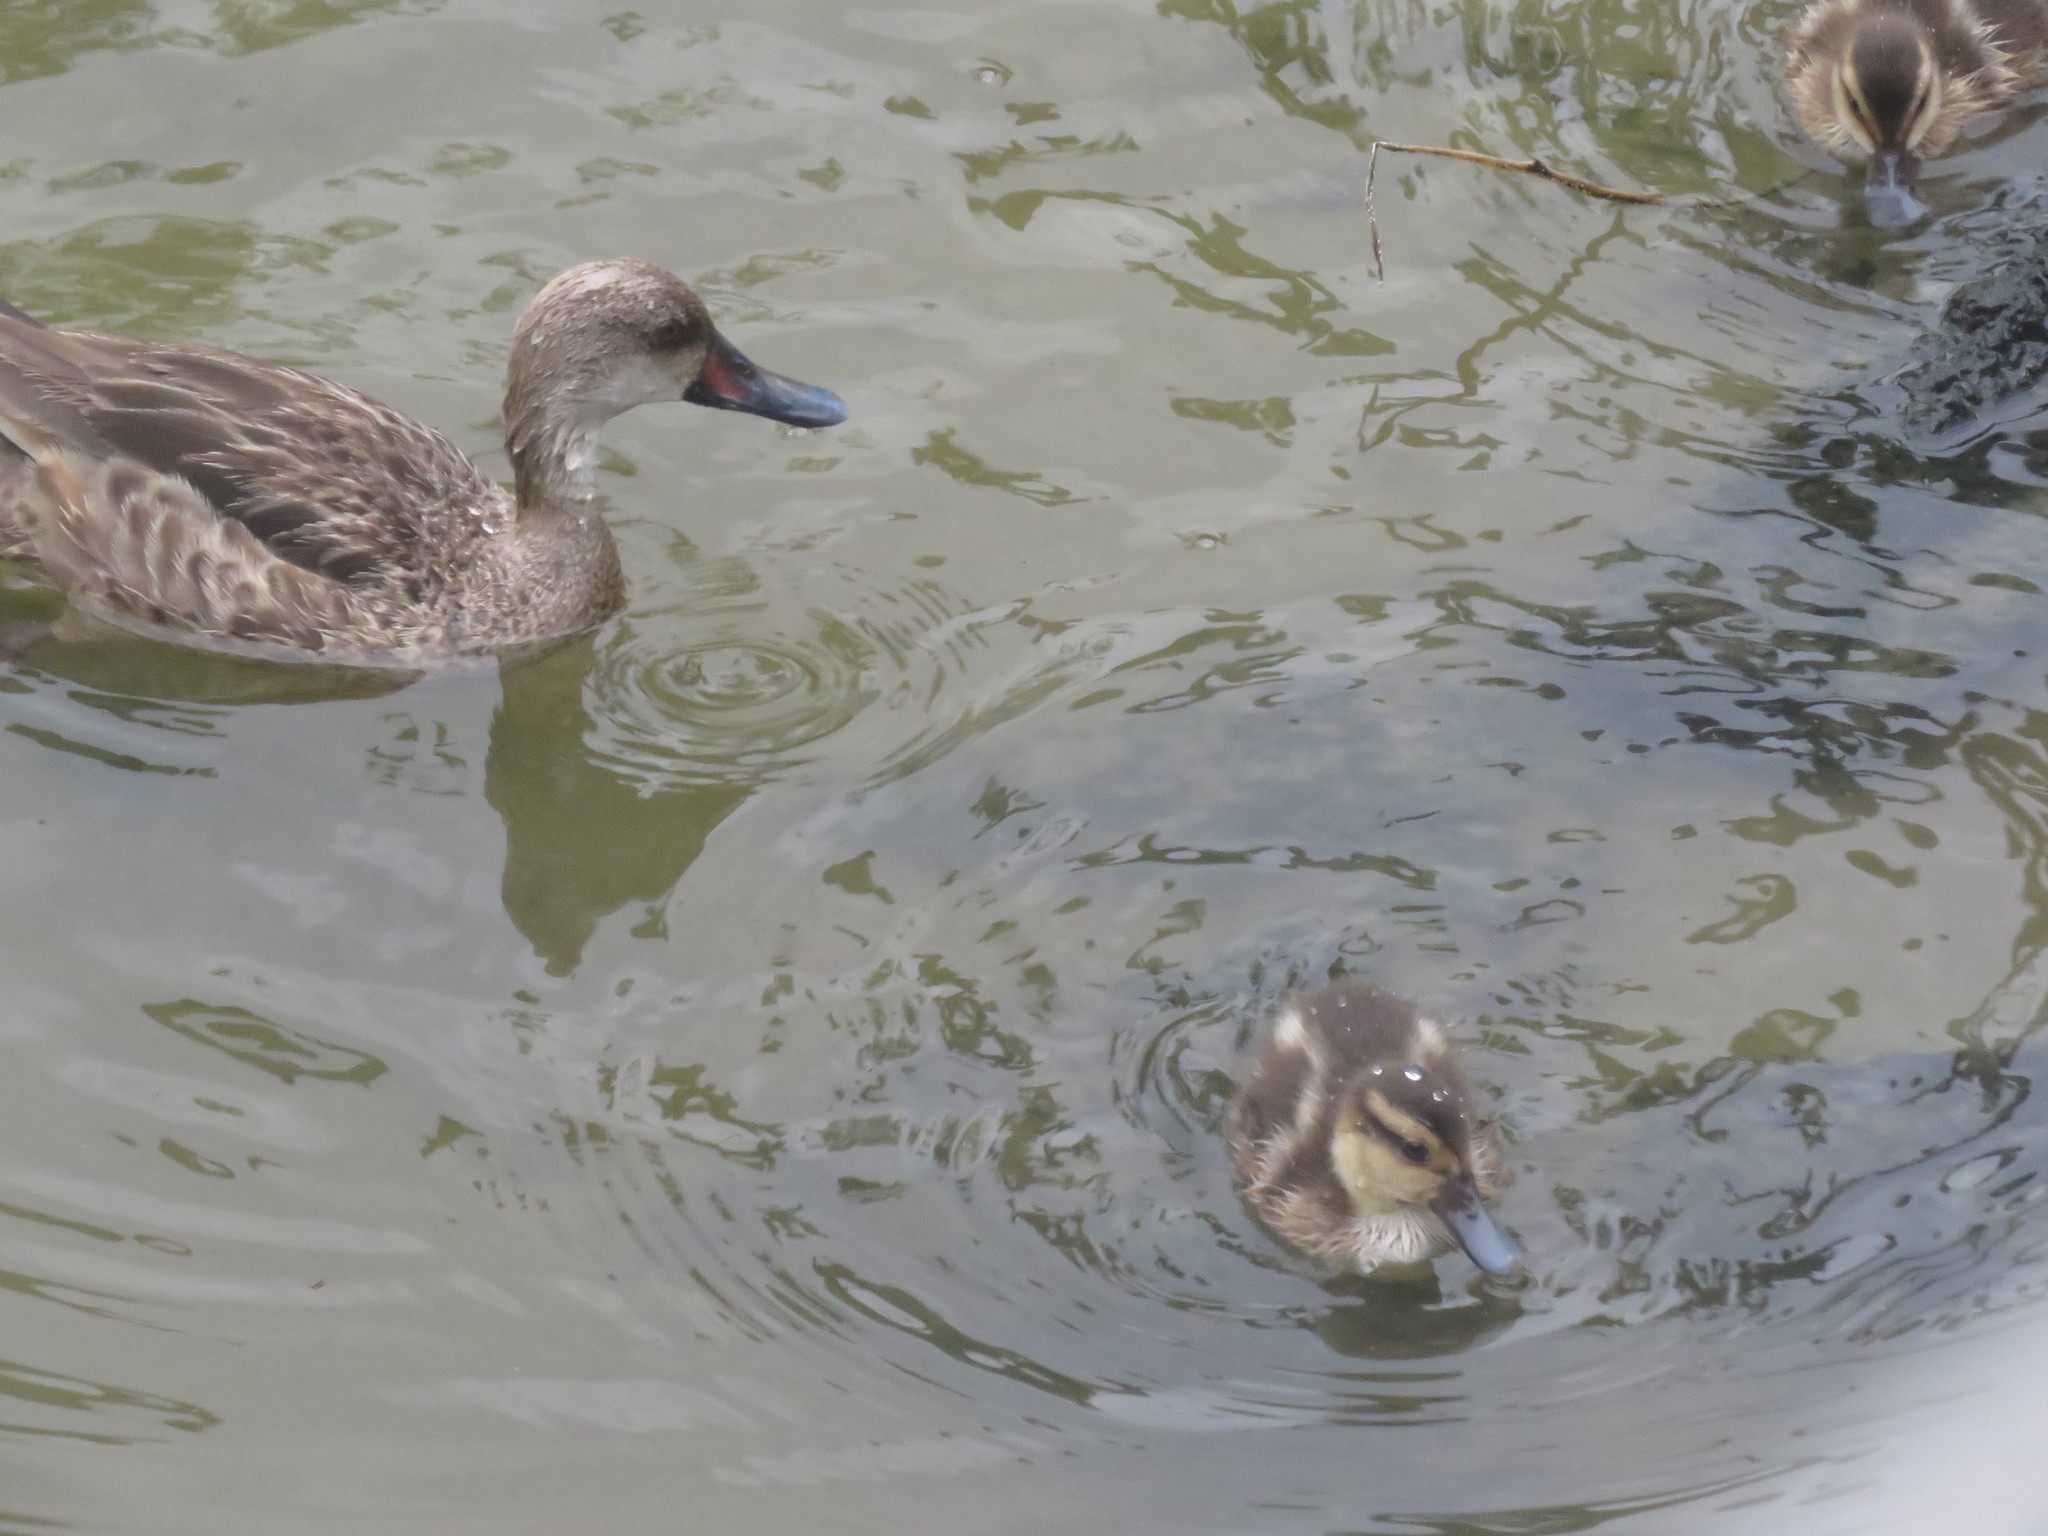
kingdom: Animalia
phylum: Chordata
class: Aves
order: Anseriformes
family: Anatidae
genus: Anas
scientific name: Anas bahamensis
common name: White-cheeked pintail
